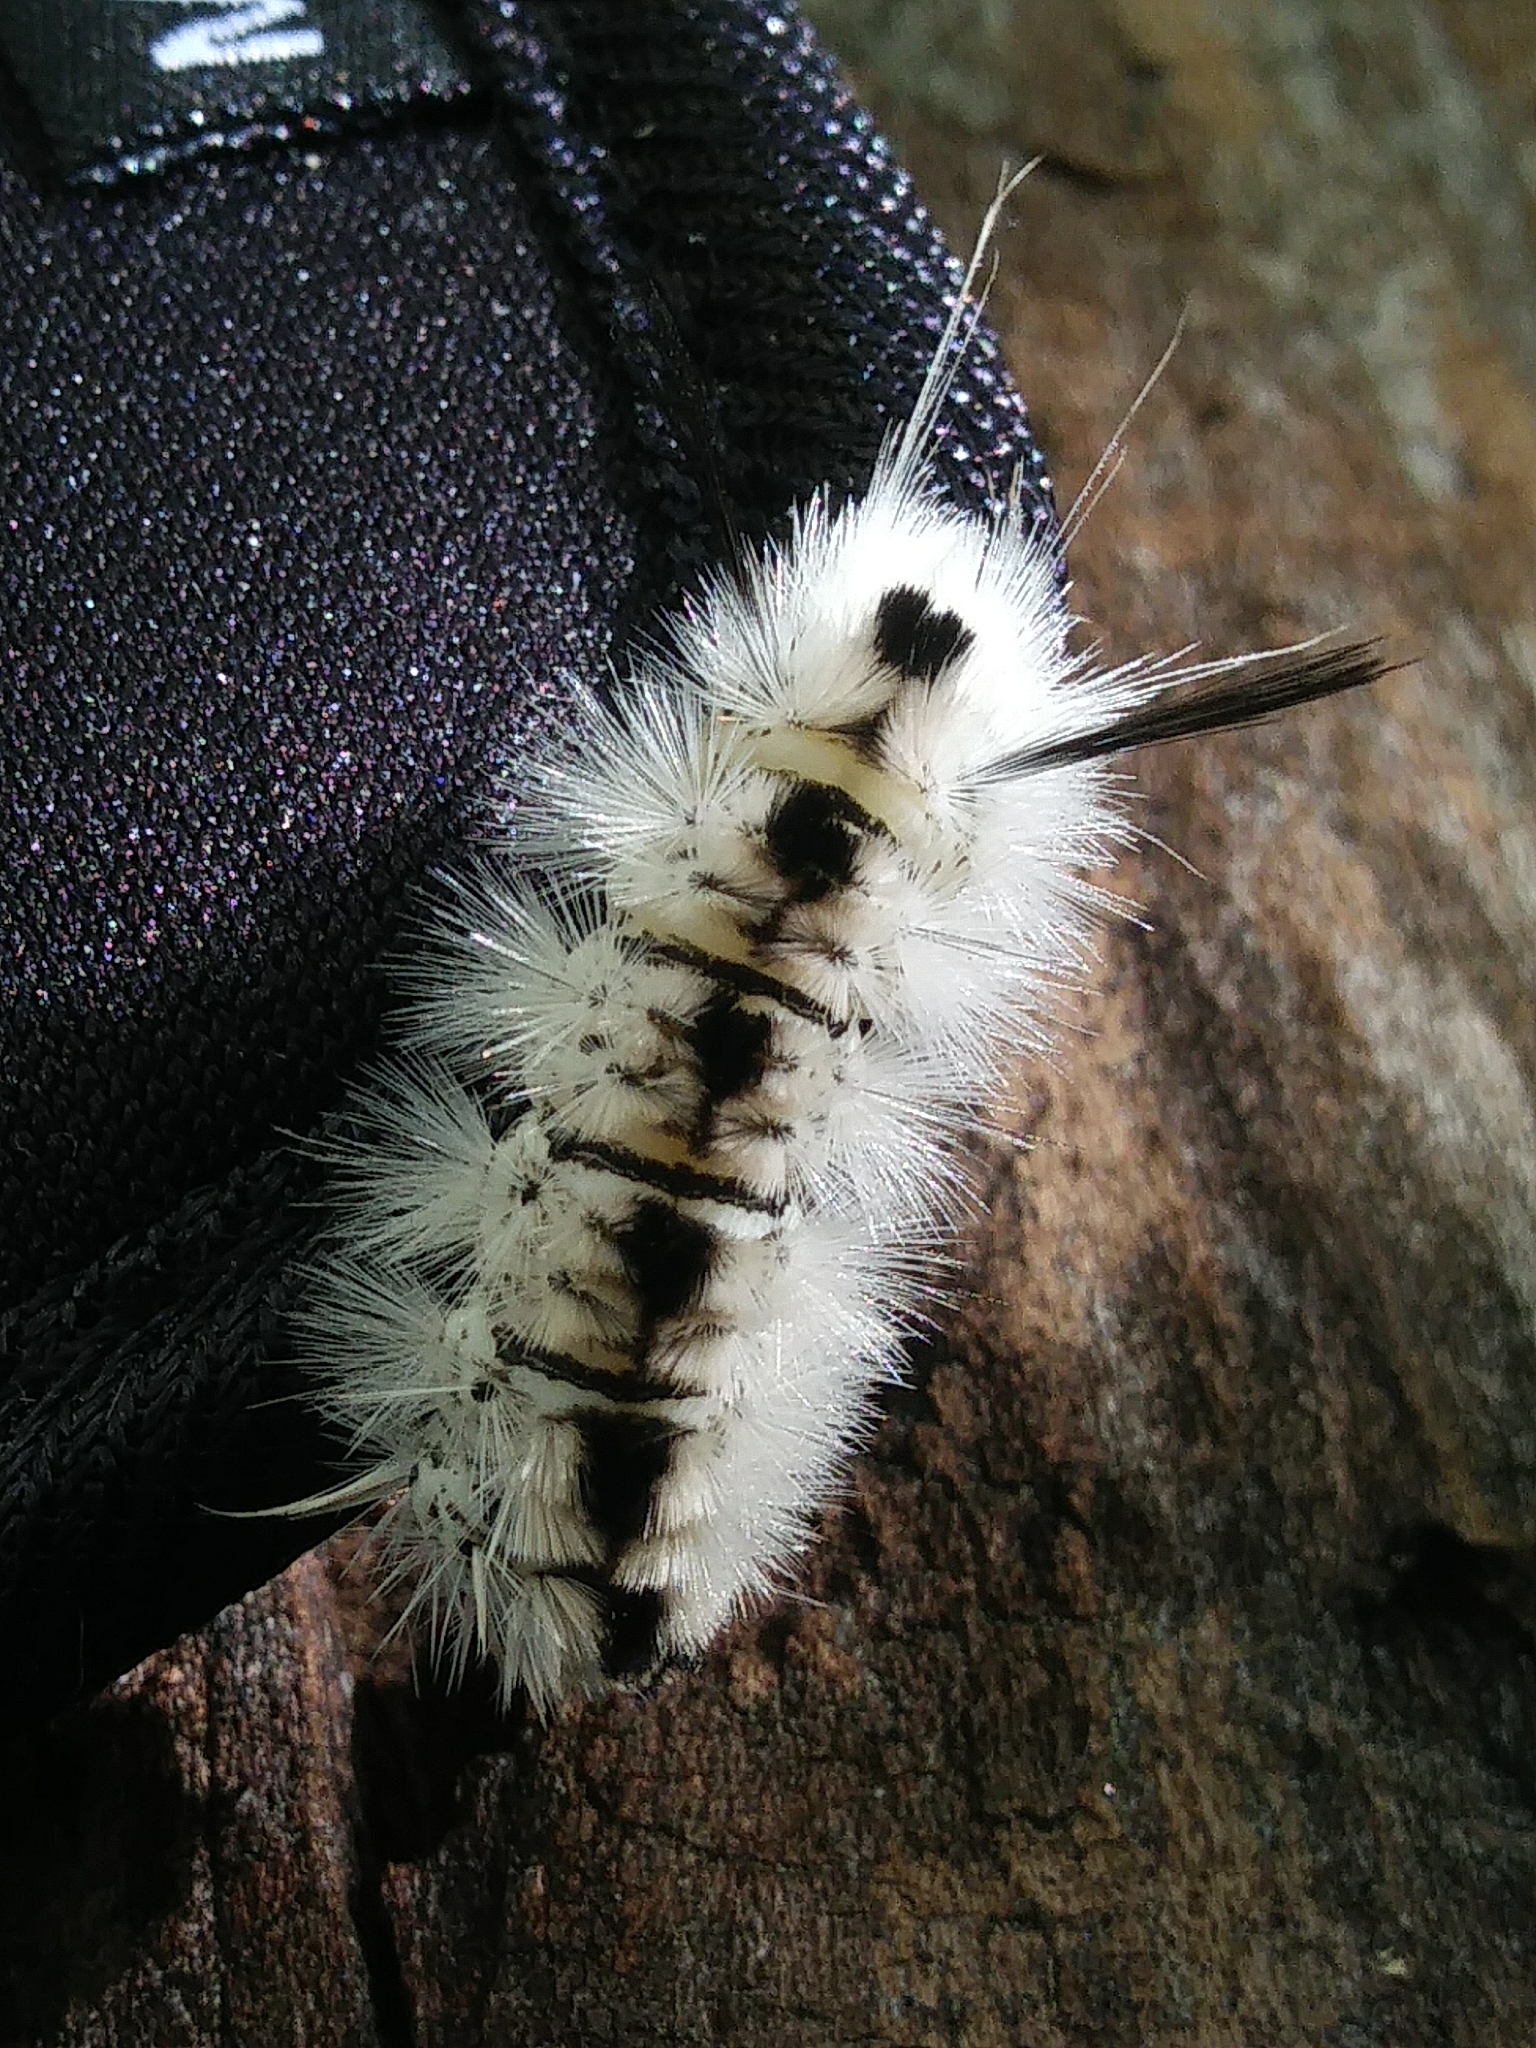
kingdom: Animalia
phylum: Arthropoda
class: Insecta
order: Lepidoptera
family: Erebidae
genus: Lophocampa
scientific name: Lophocampa caryae
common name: Hickory tussock moth
